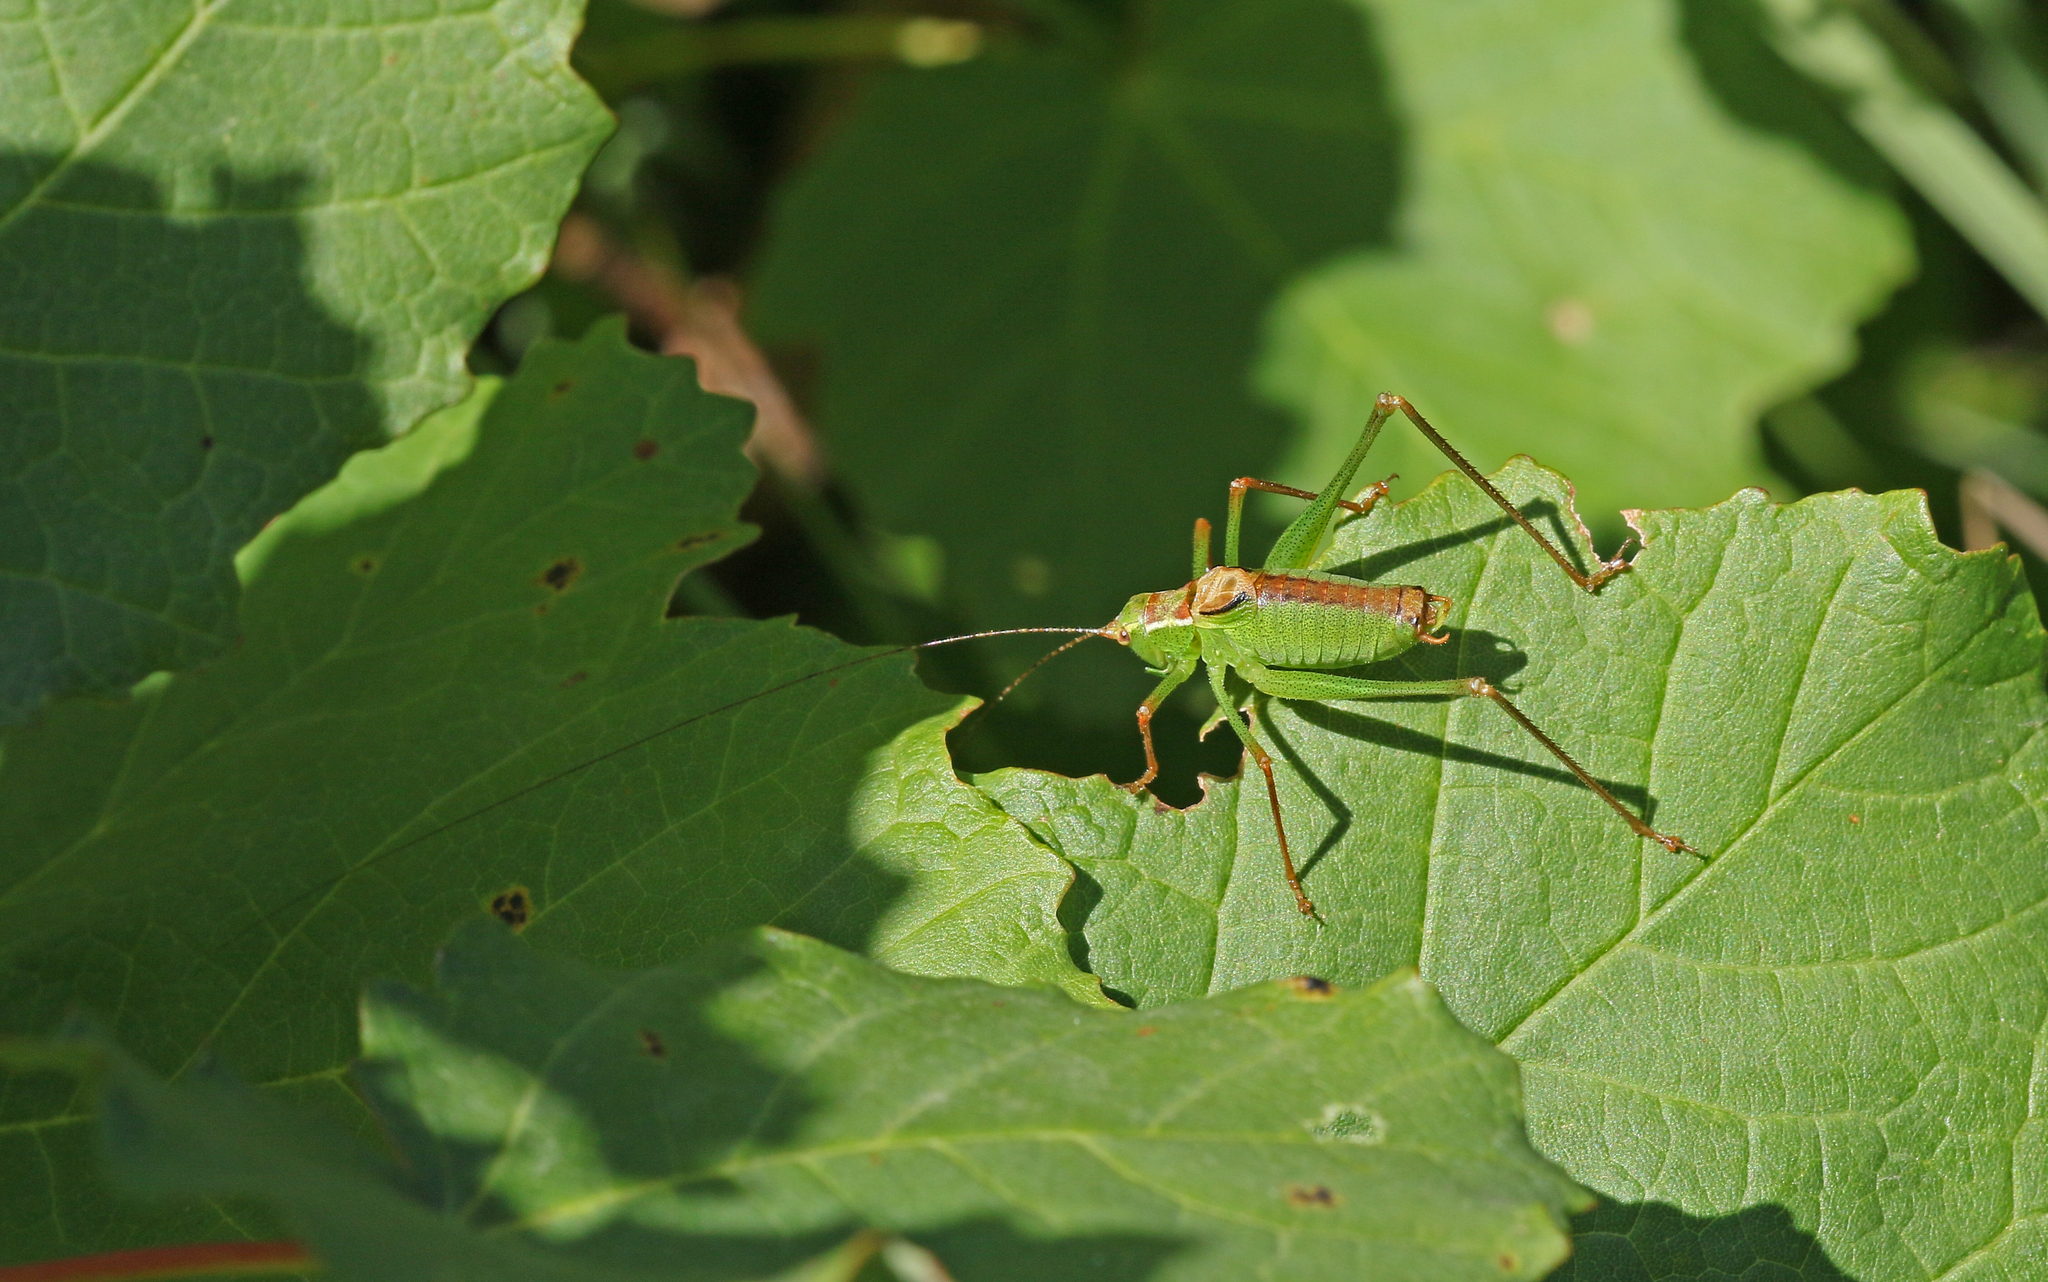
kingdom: Animalia
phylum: Arthropoda
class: Insecta
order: Orthoptera
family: Tettigoniidae
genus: Leptophyes
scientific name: Leptophyes punctatissima
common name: Speckled bush-cricket
